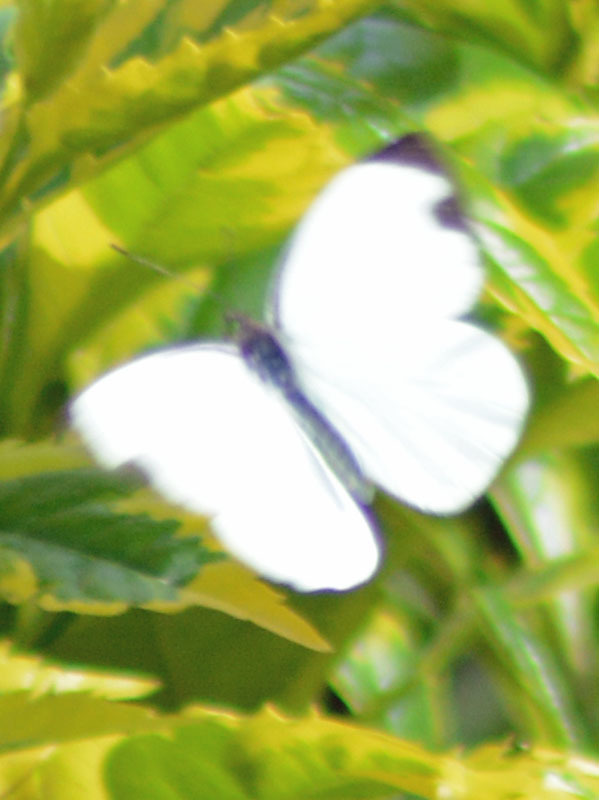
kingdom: Animalia
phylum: Arthropoda
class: Insecta
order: Lepidoptera
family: Pieridae
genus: Leptophobia
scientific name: Leptophobia aripa
